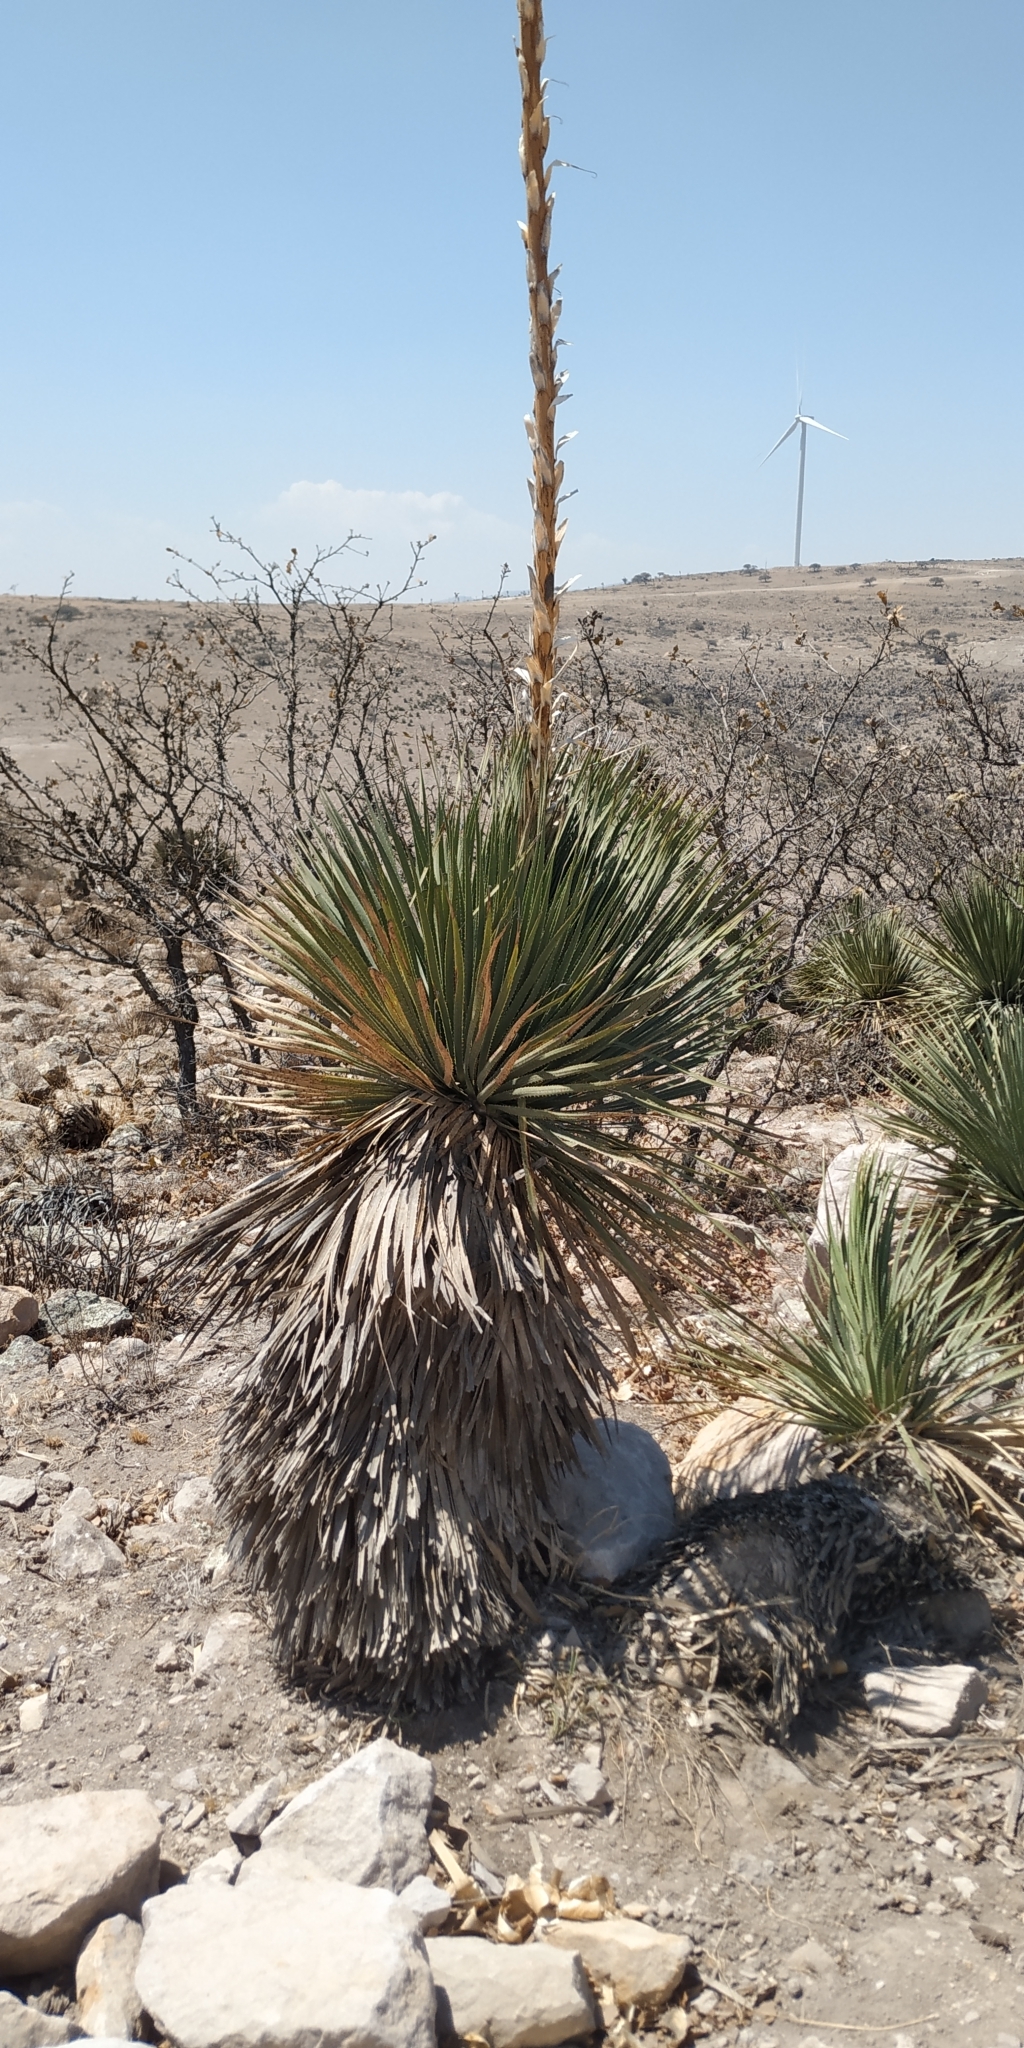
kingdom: Plantae
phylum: Tracheophyta
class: Liliopsida
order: Asparagales
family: Asparagaceae
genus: Dasylirion
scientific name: Dasylirion acrotrichum
